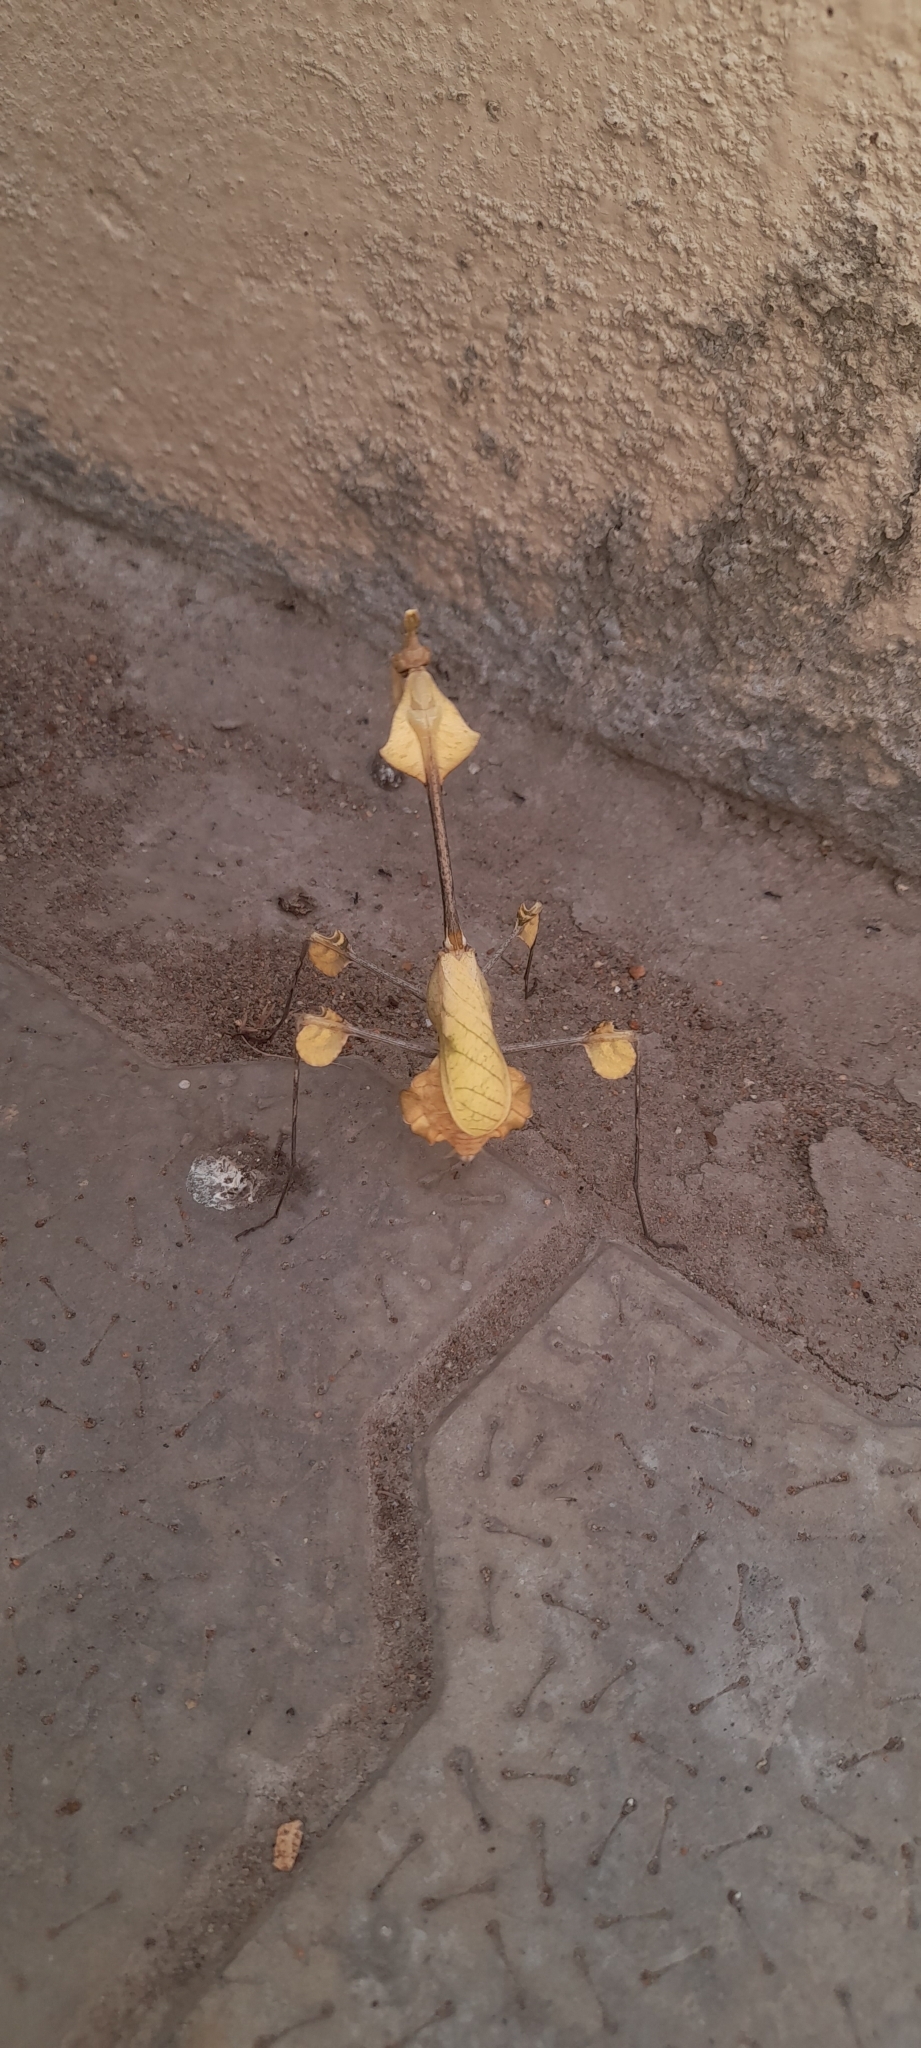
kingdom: Animalia
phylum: Arthropoda
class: Insecta
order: Mantodea
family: Empusidae
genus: Gongylus
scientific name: Gongylus gongylodes
